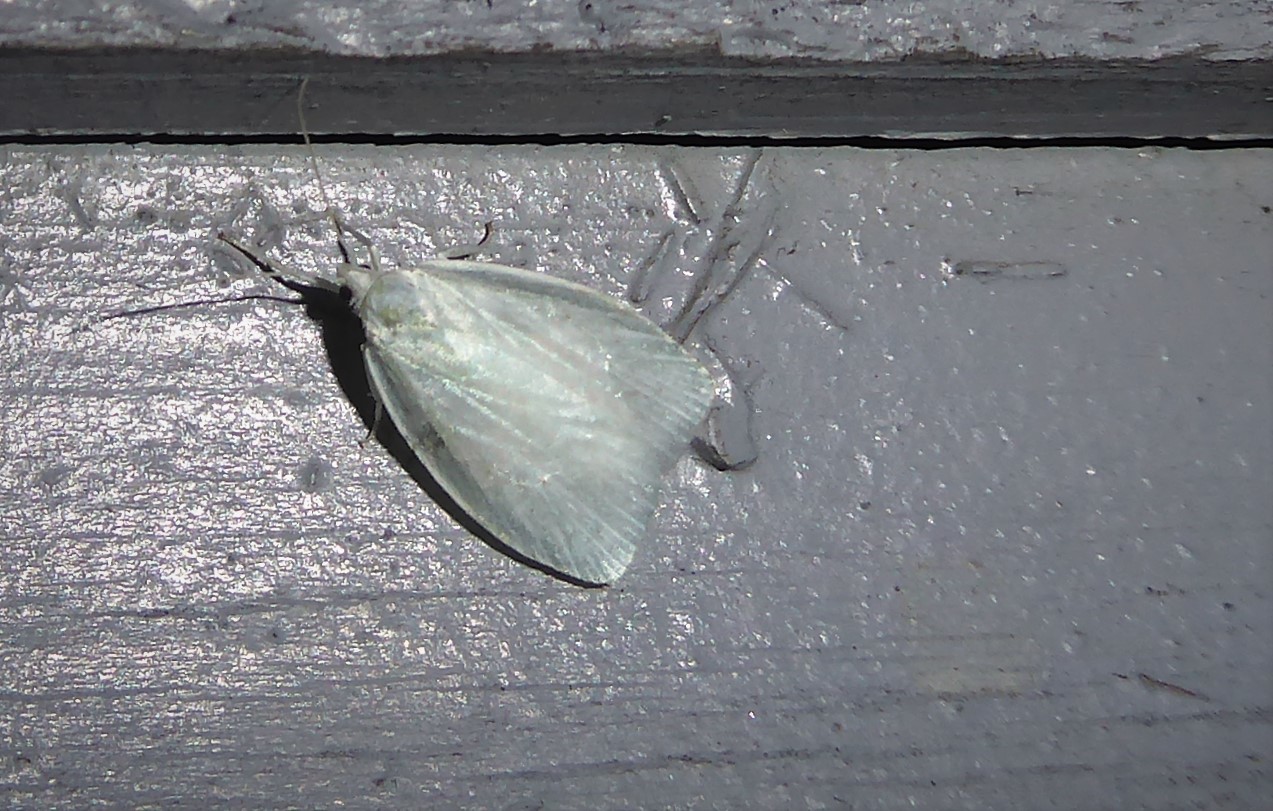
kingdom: Animalia
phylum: Arthropoda
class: Insecta
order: Lepidoptera
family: Oecophoridae
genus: Nymphostola
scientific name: Nymphostola galactina
